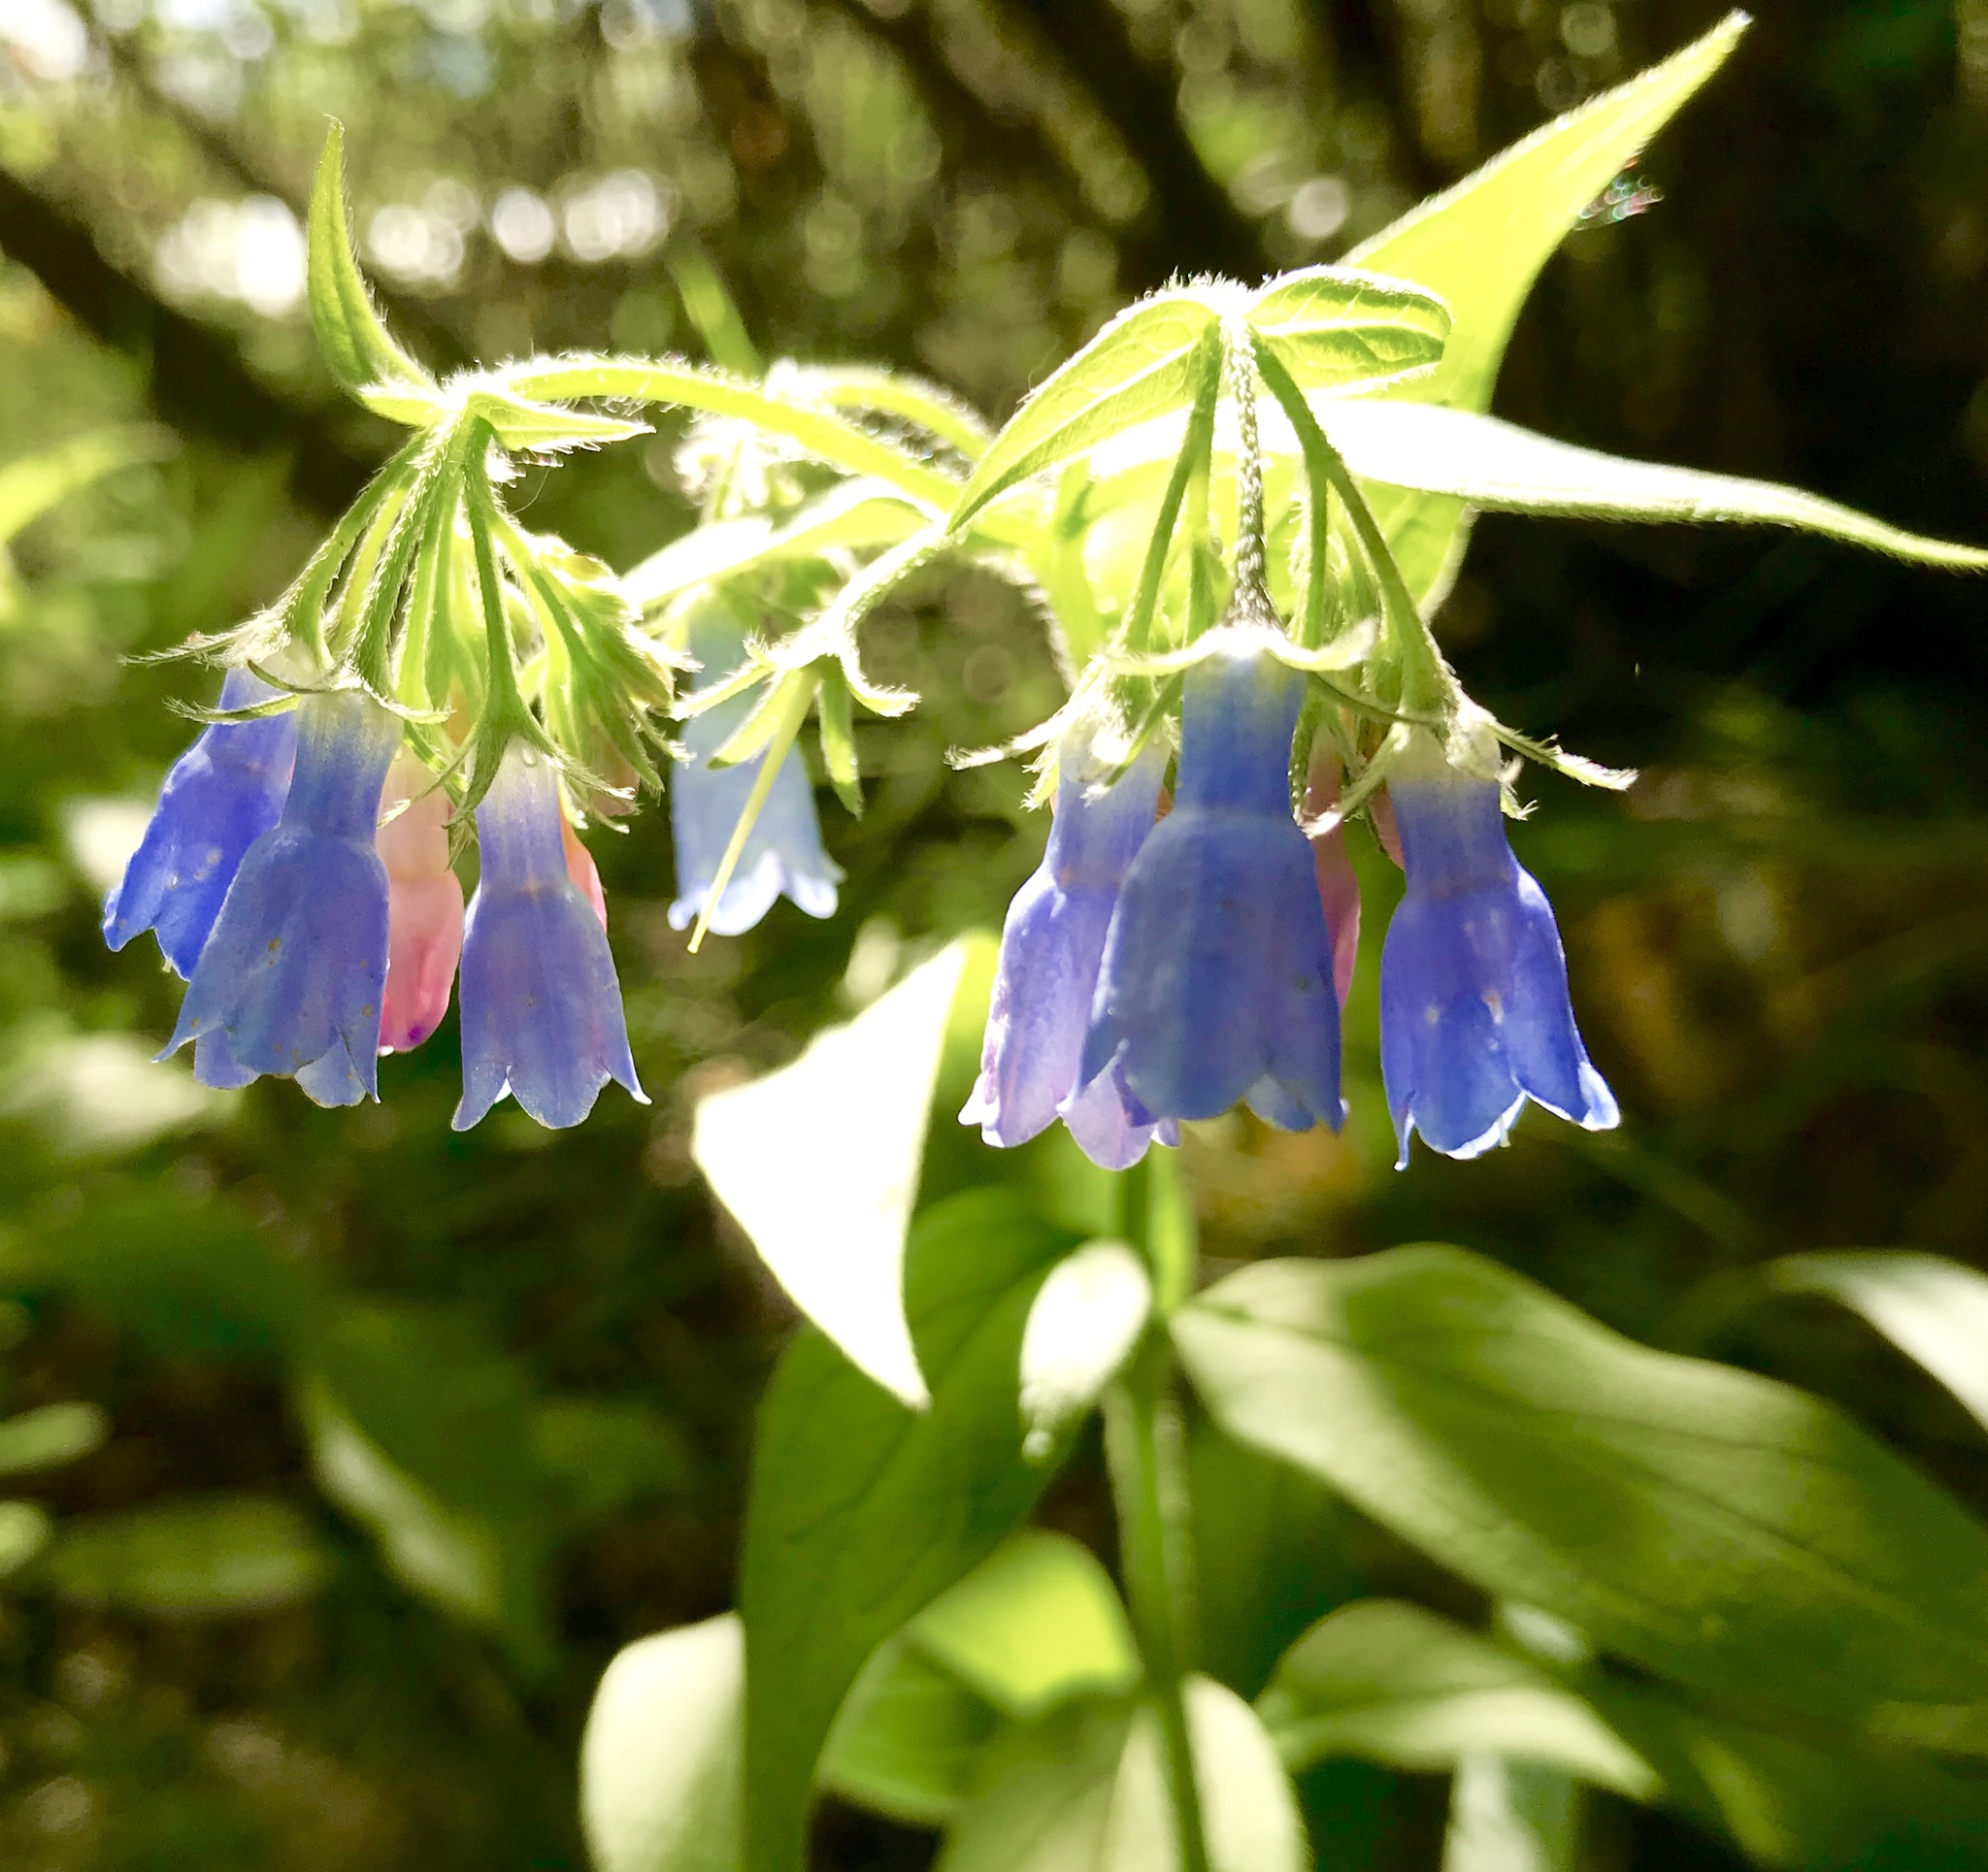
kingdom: Plantae
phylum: Tracheophyta
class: Magnoliopsida
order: Boraginales
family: Boraginaceae
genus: Mertensia
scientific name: Mertensia paniculata
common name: Panicled bluebells
